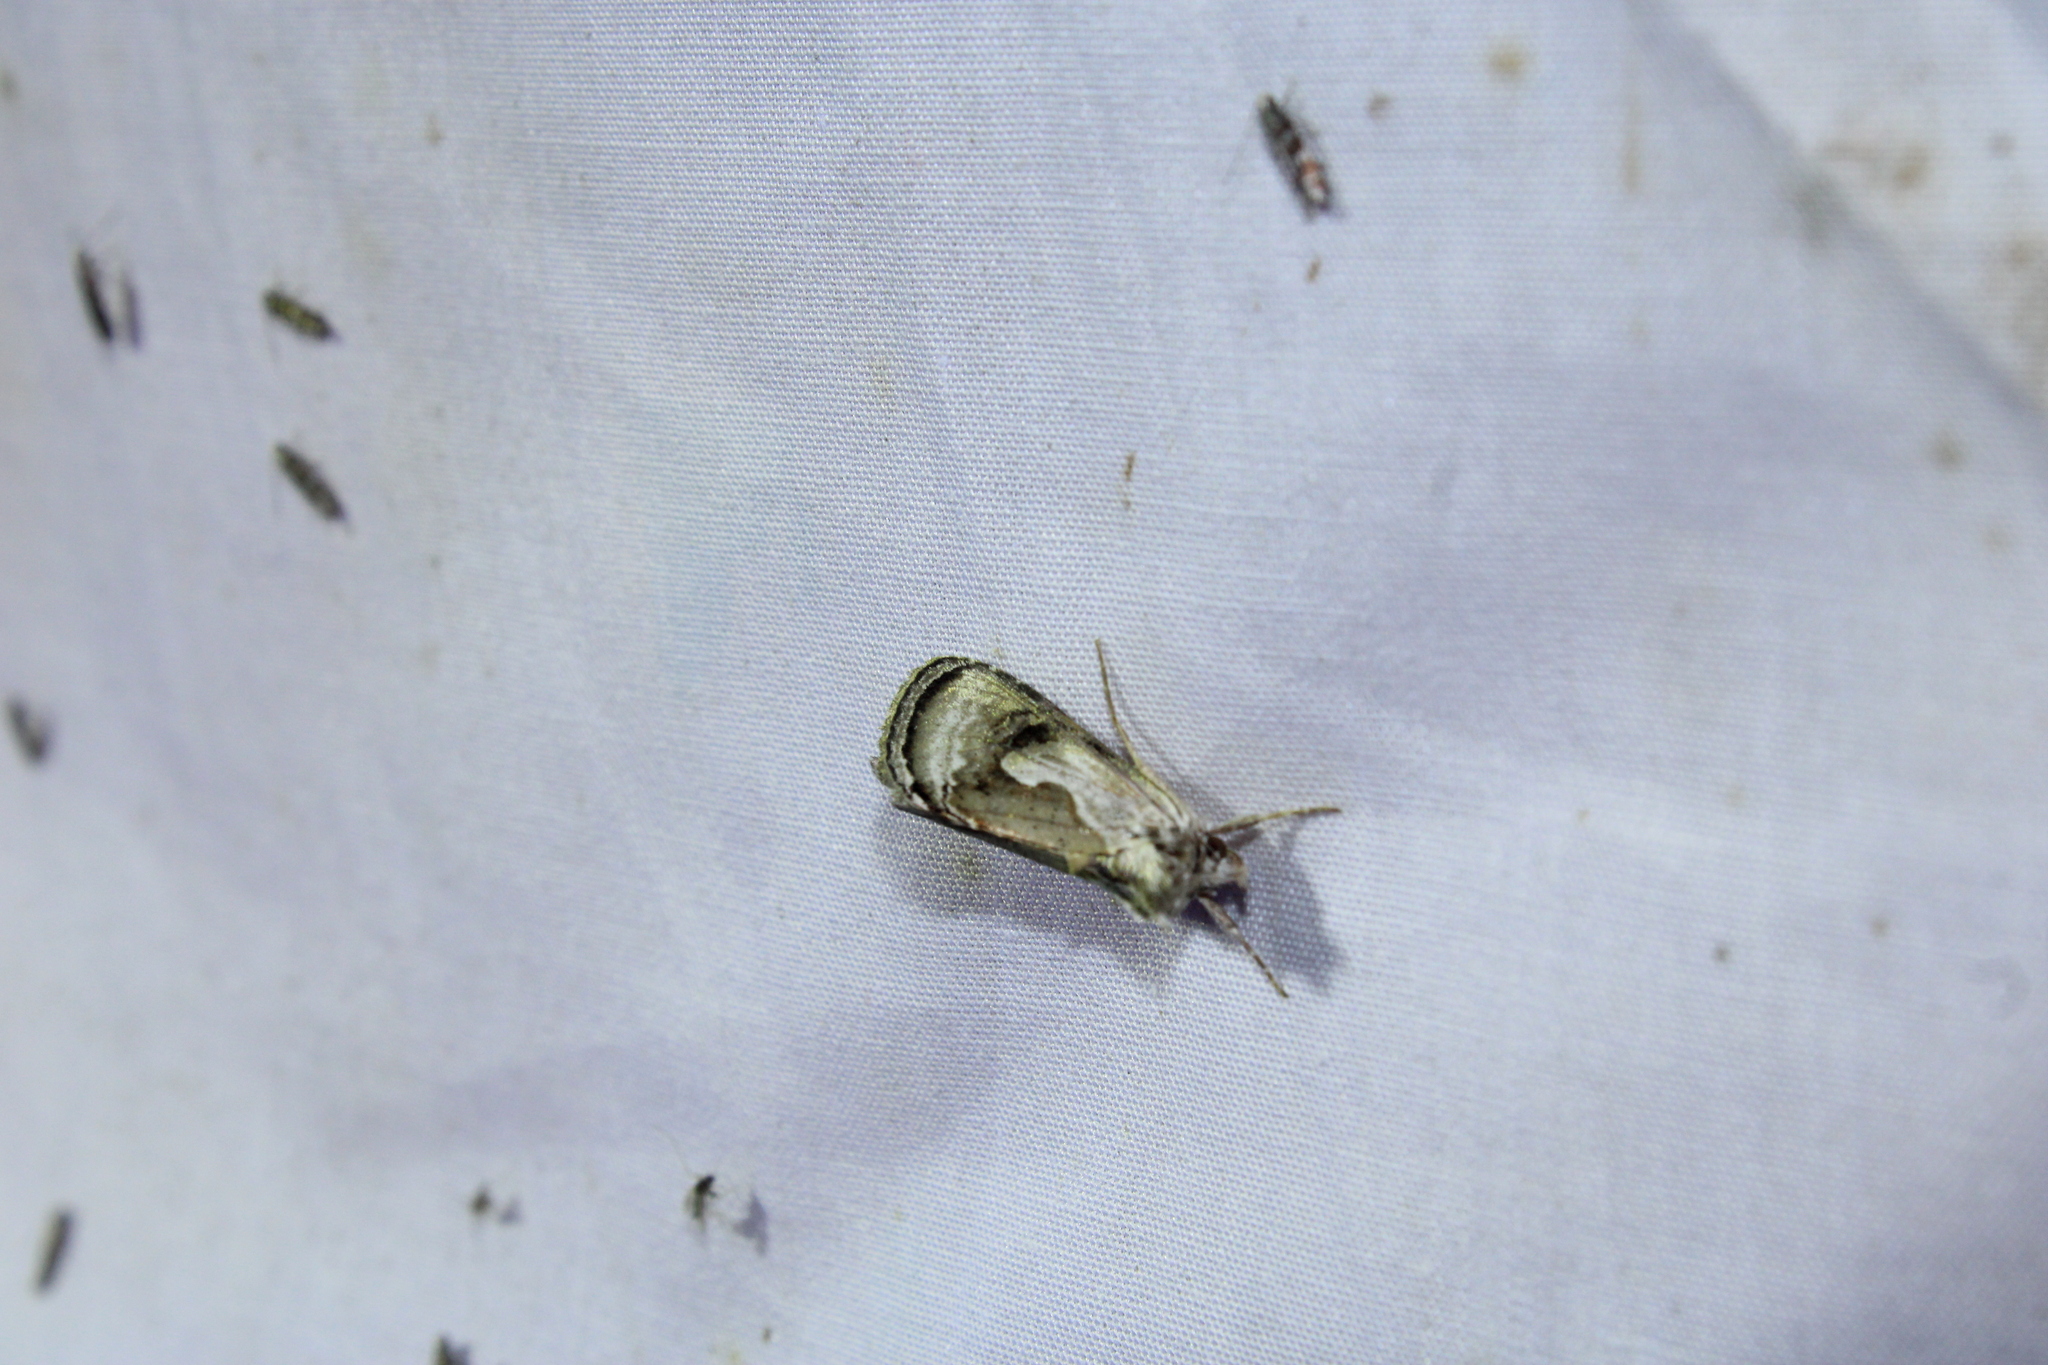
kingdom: Animalia
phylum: Arthropoda
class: Insecta
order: Lepidoptera
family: Noctuidae
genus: Chrysanympha
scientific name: Chrysanympha formosa
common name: Formosa looper moth
